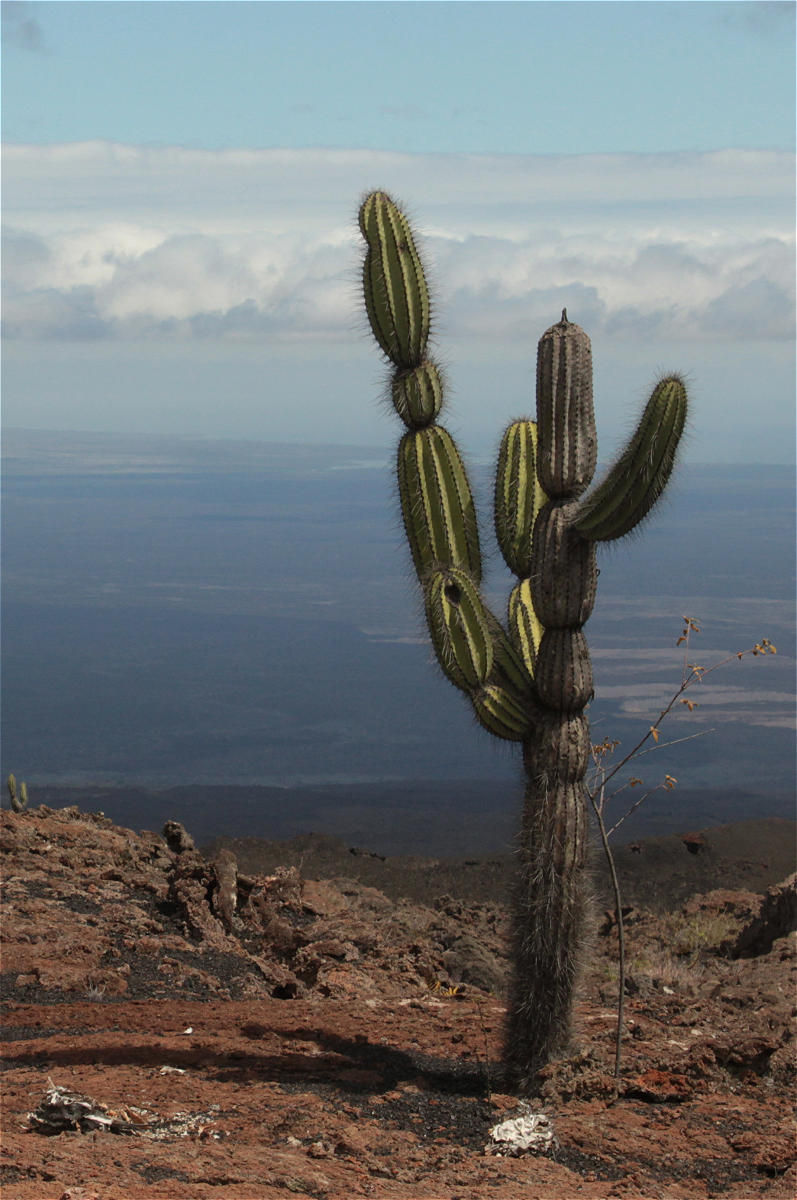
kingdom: Plantae
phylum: Tracheophyta
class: Magnoliopsida
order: Caryophyllales
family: Cactaceae
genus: Jasminocereus
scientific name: Jasminocereus thouarsii
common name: Candelabra cactus
